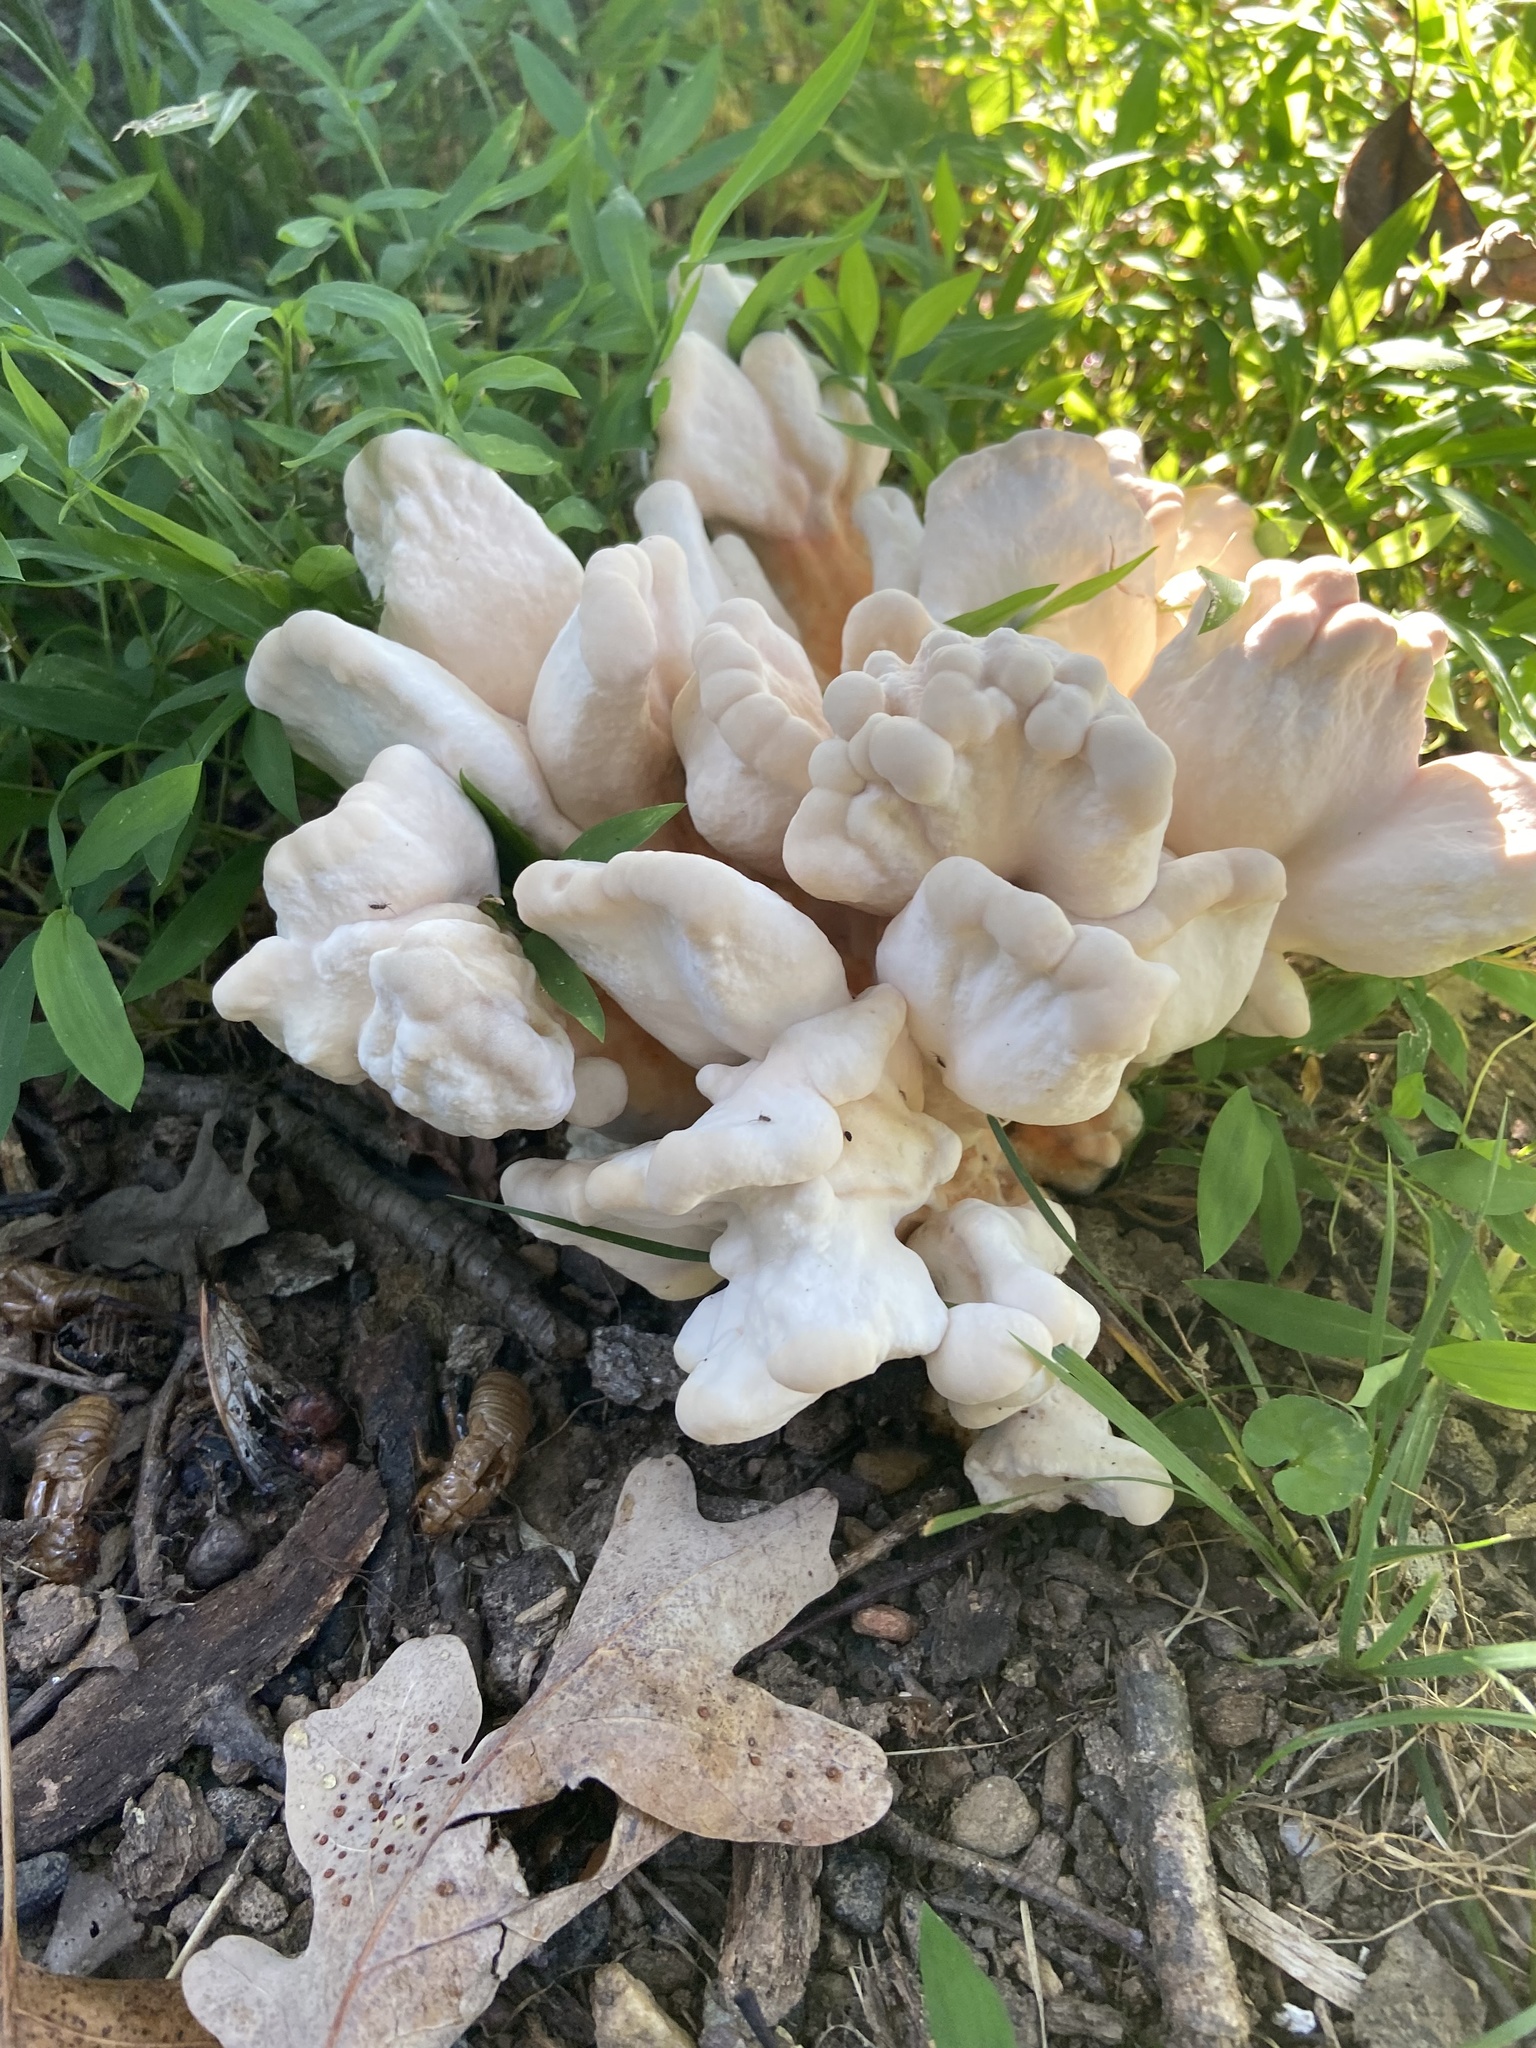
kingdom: Fungi
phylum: Basidiomycota
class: Agaricomycetes
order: Polyporales
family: Laetiporaceae
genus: Laetiporus
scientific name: Laetiporus sulphureus
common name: Chicken of the woods
